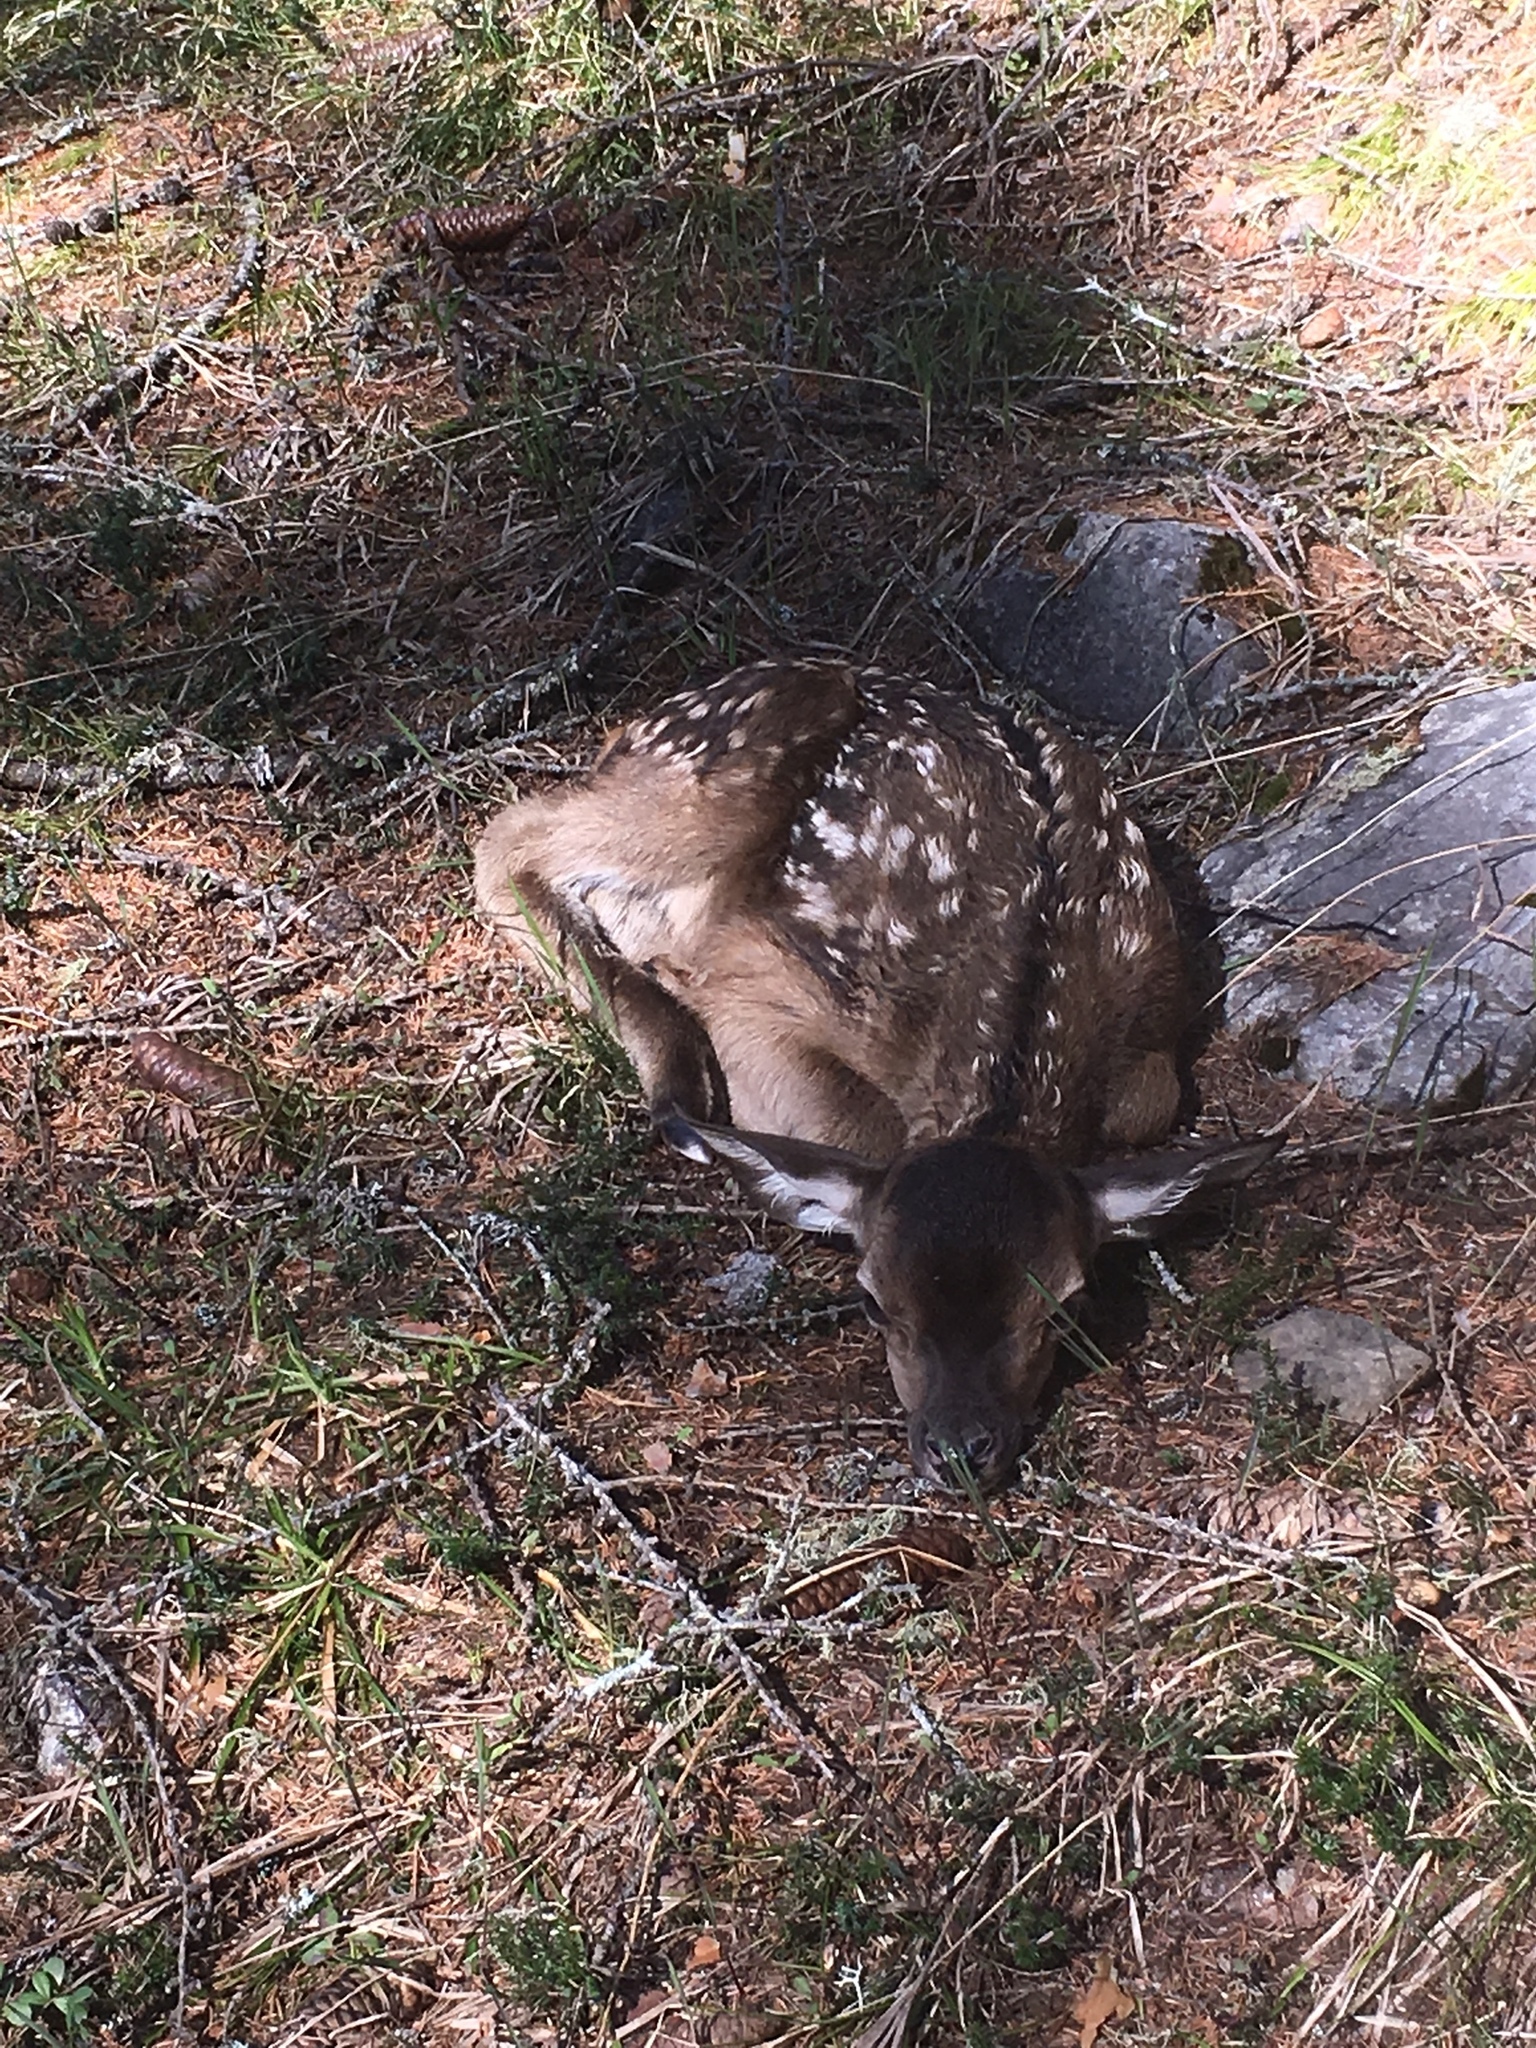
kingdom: Animalia
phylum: Chordata
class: Mammalia
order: Artiodactyla
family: Cervidae
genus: Cervus
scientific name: Cervus elaphus
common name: Red deer
